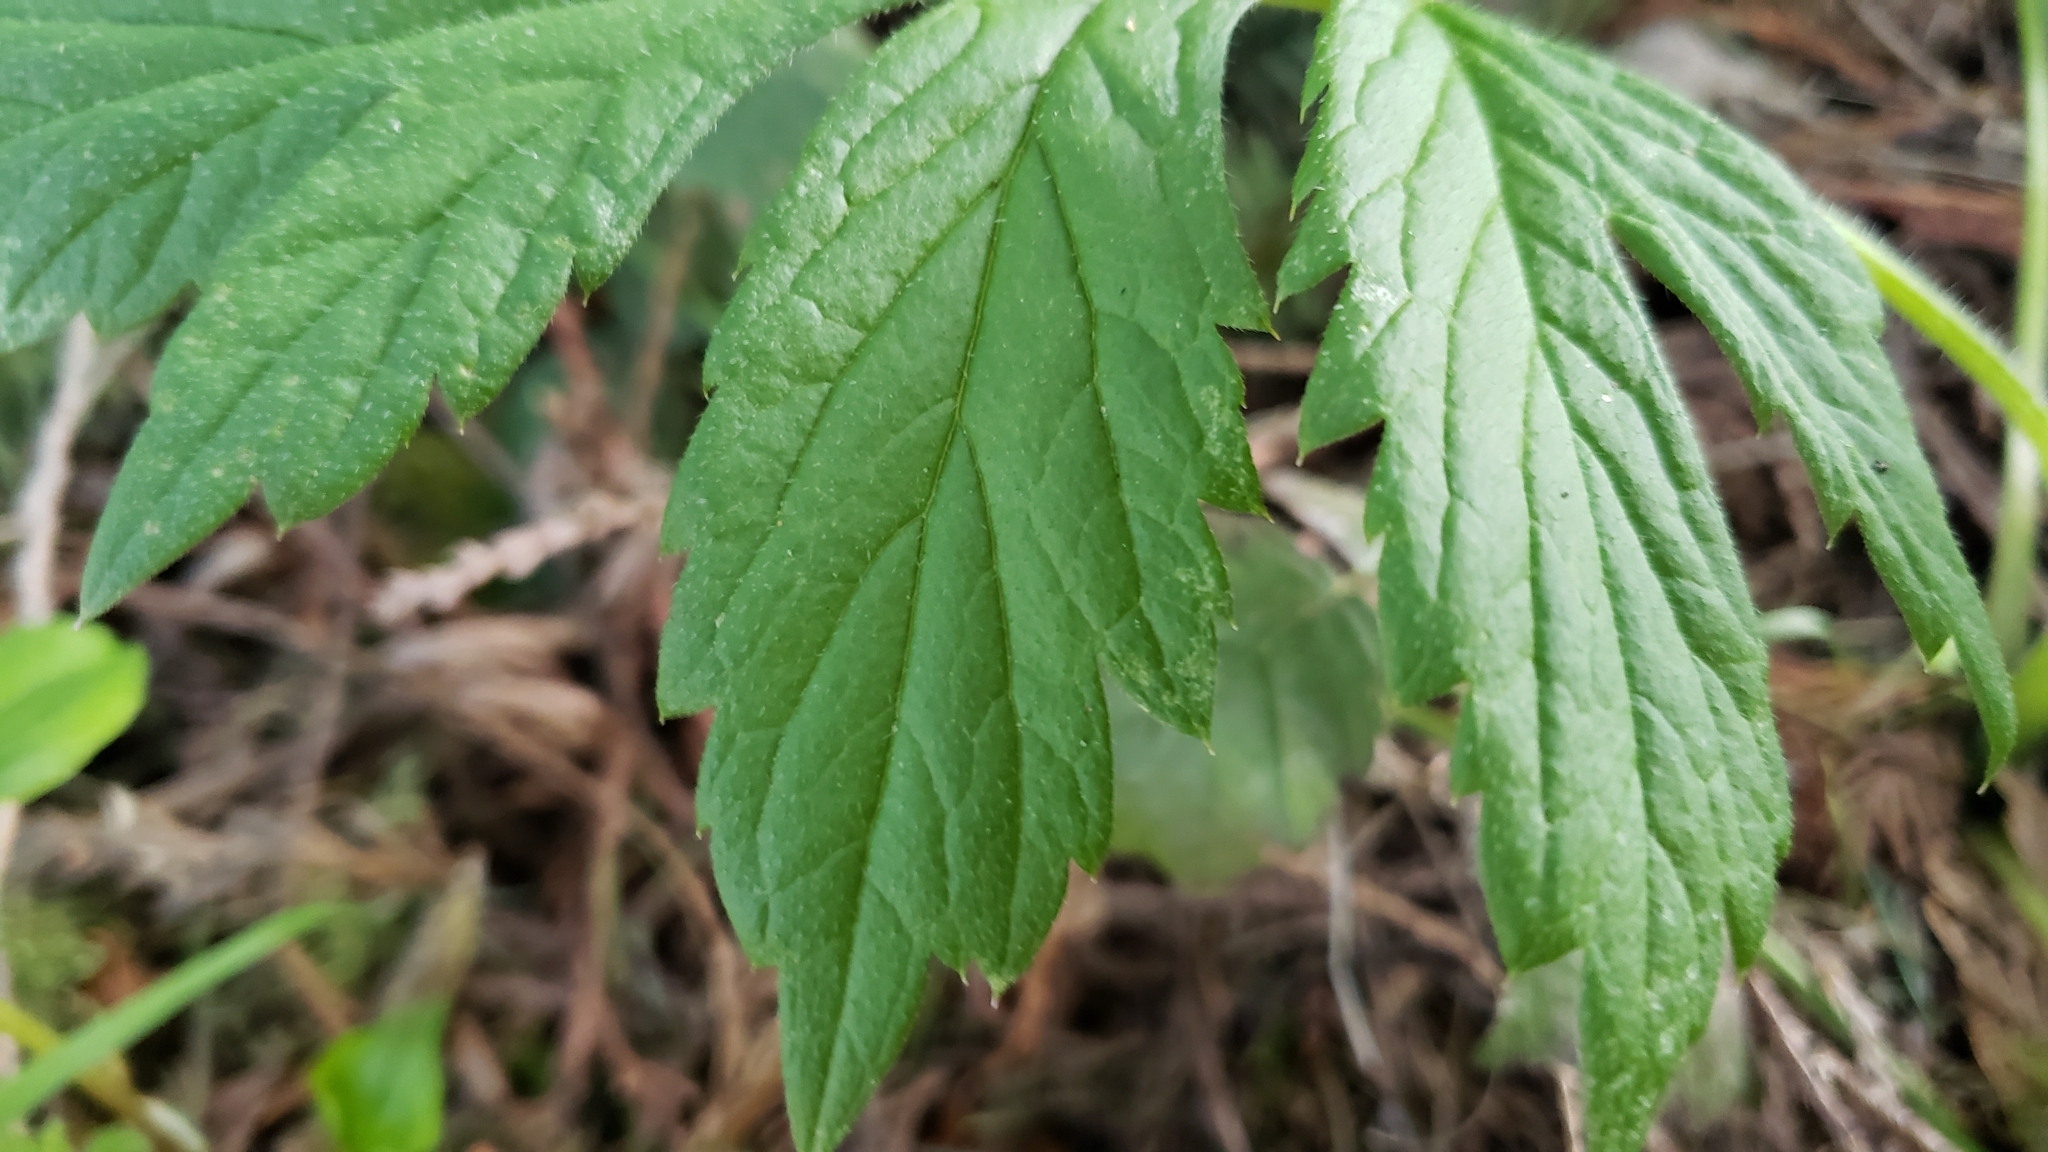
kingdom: Plantae
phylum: Tracheophyta
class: Magnoliopsida
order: Boraginales
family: Hydrophyllaceae
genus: Hydrophyllum
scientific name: Hydrophyllum tenuipes
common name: Pacific waterleaf
